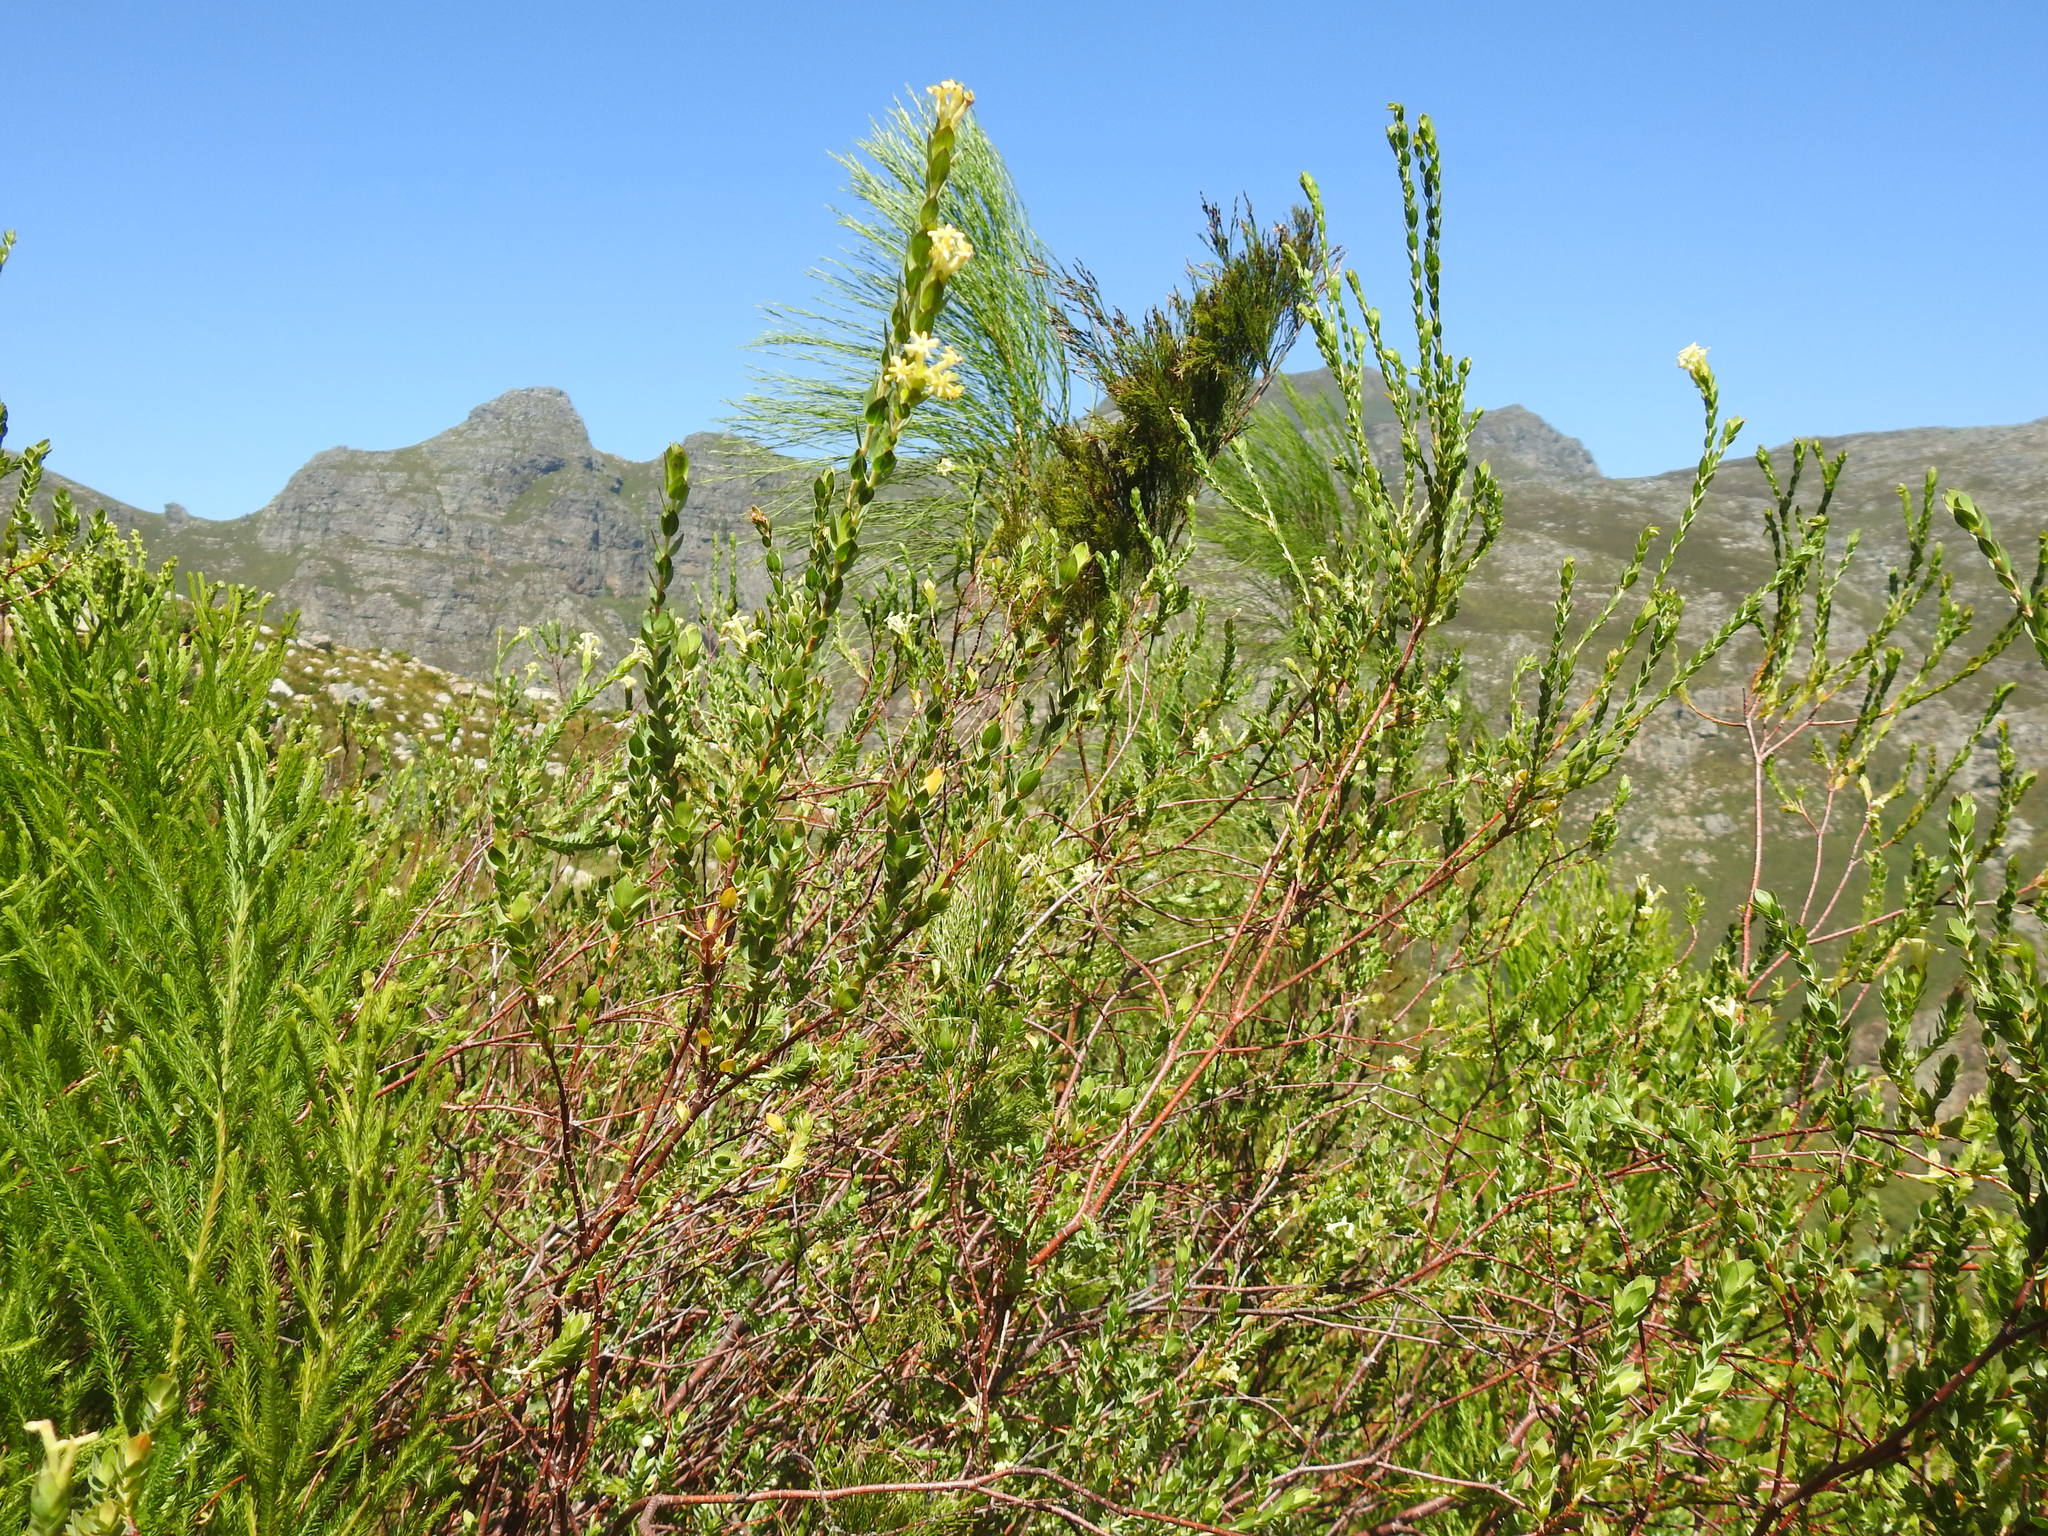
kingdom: Plantae
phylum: Tracheophyta
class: Magnoliopsida
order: Malvales
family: Thymelaeaceae
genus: Gnidia
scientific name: Gnidia oppositifolia
